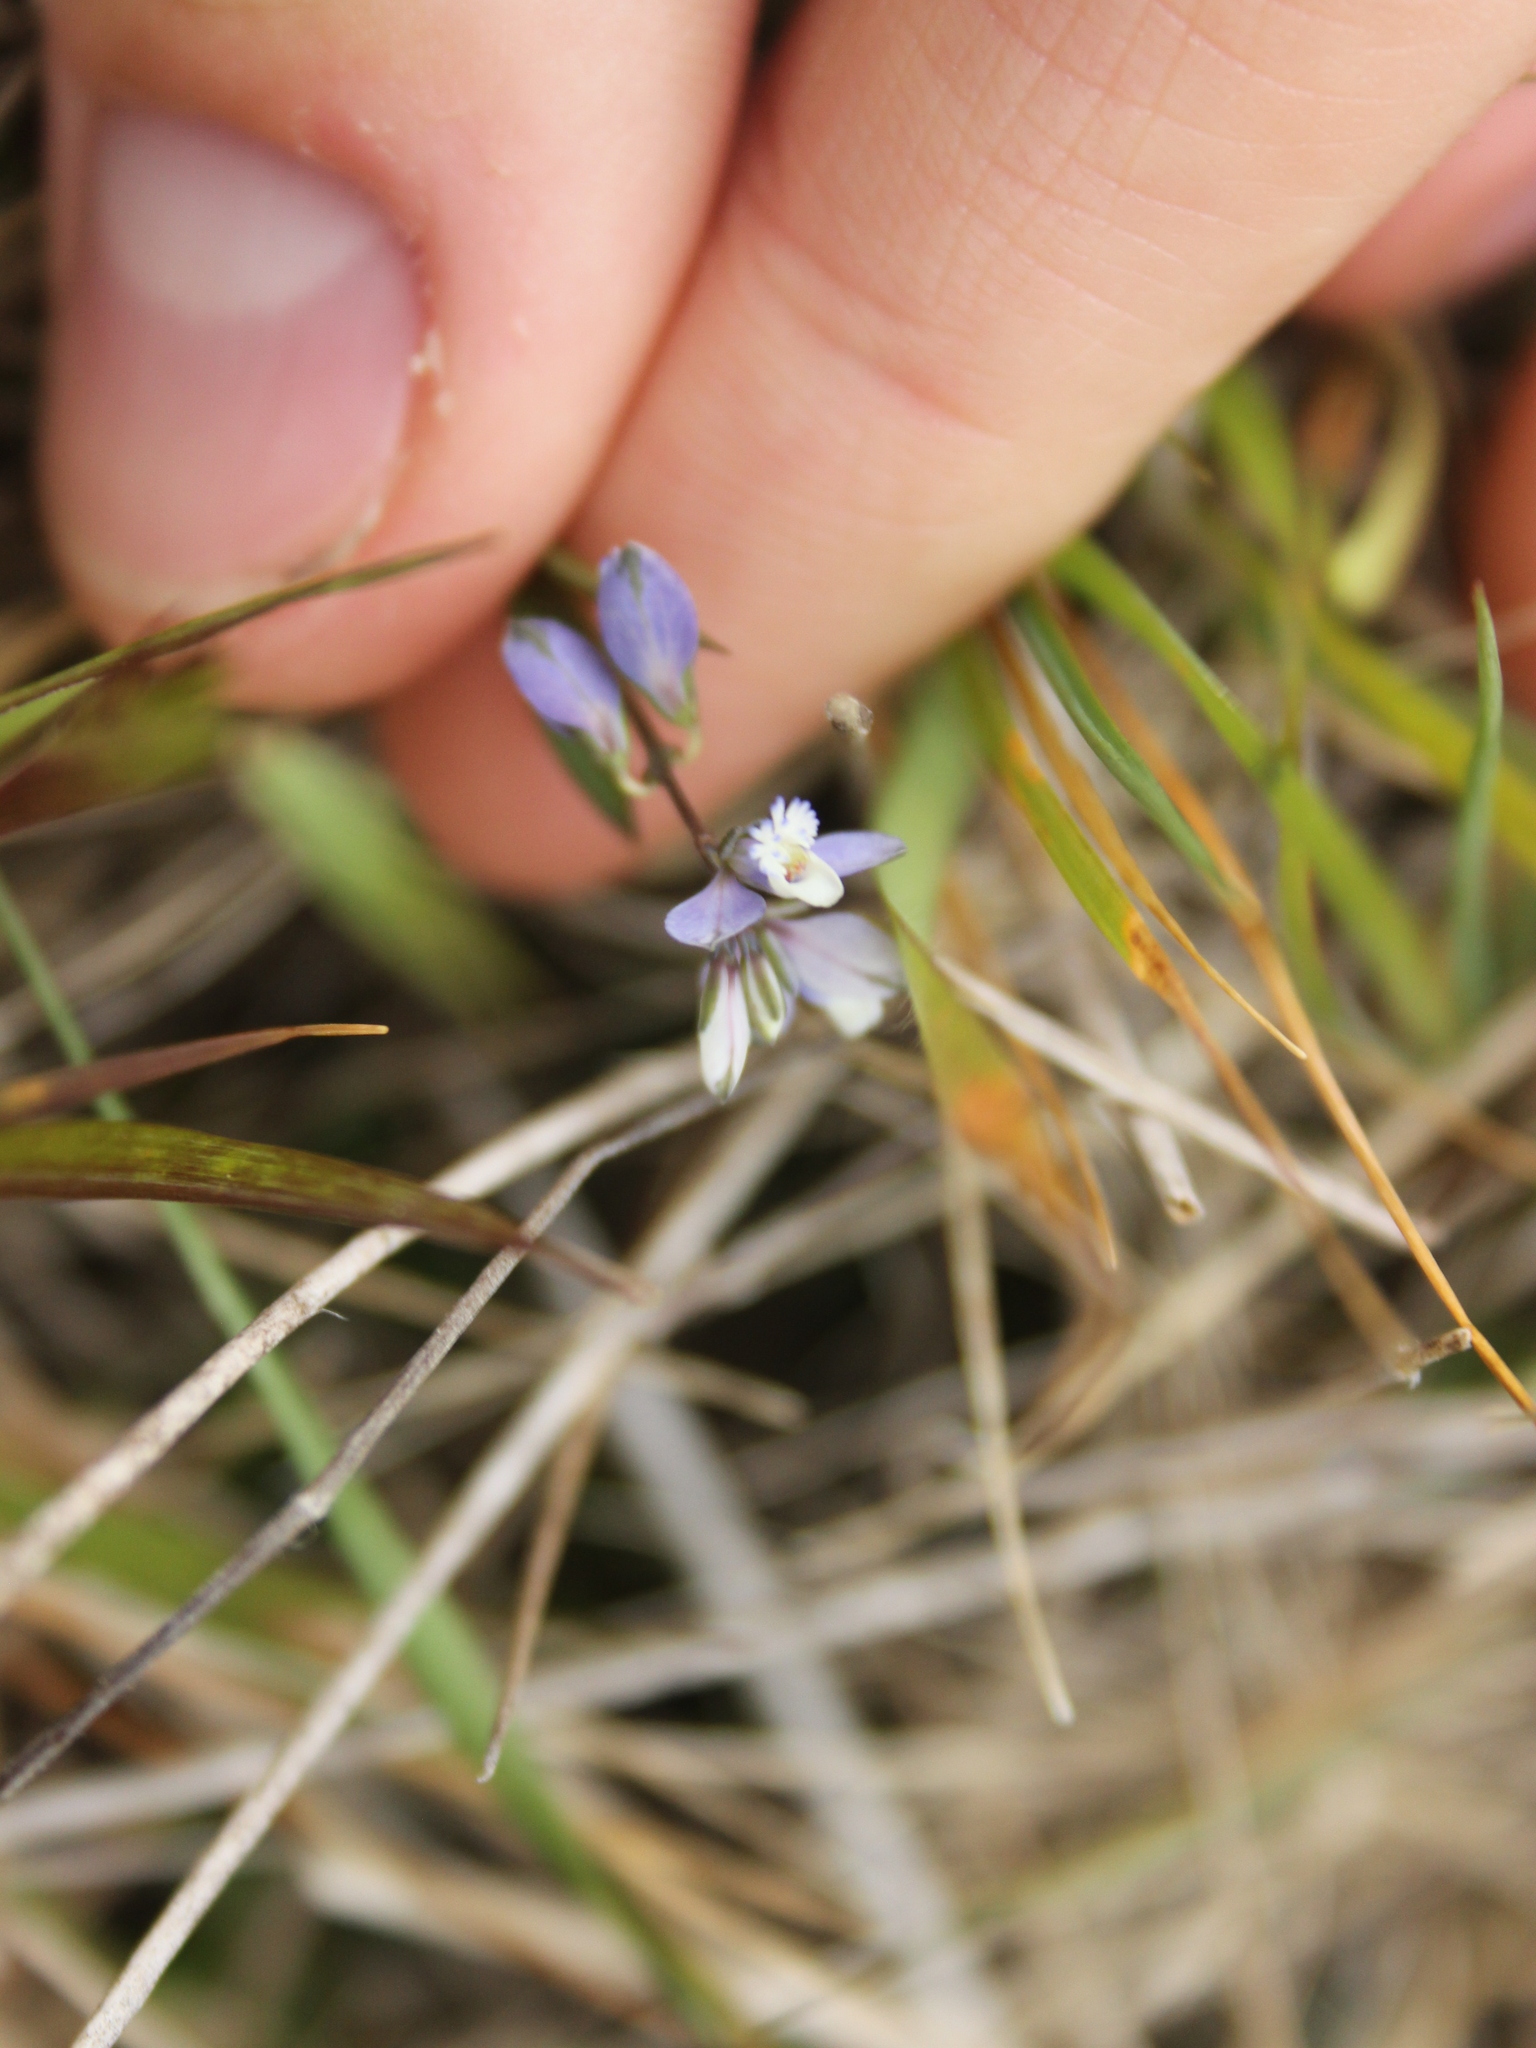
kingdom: Plantae
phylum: Tracheophyta
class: Magnoliopsida
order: Fabales
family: Polygalaceae
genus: Polygala
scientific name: Polygala serpyllifolia
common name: Heath milkwort
